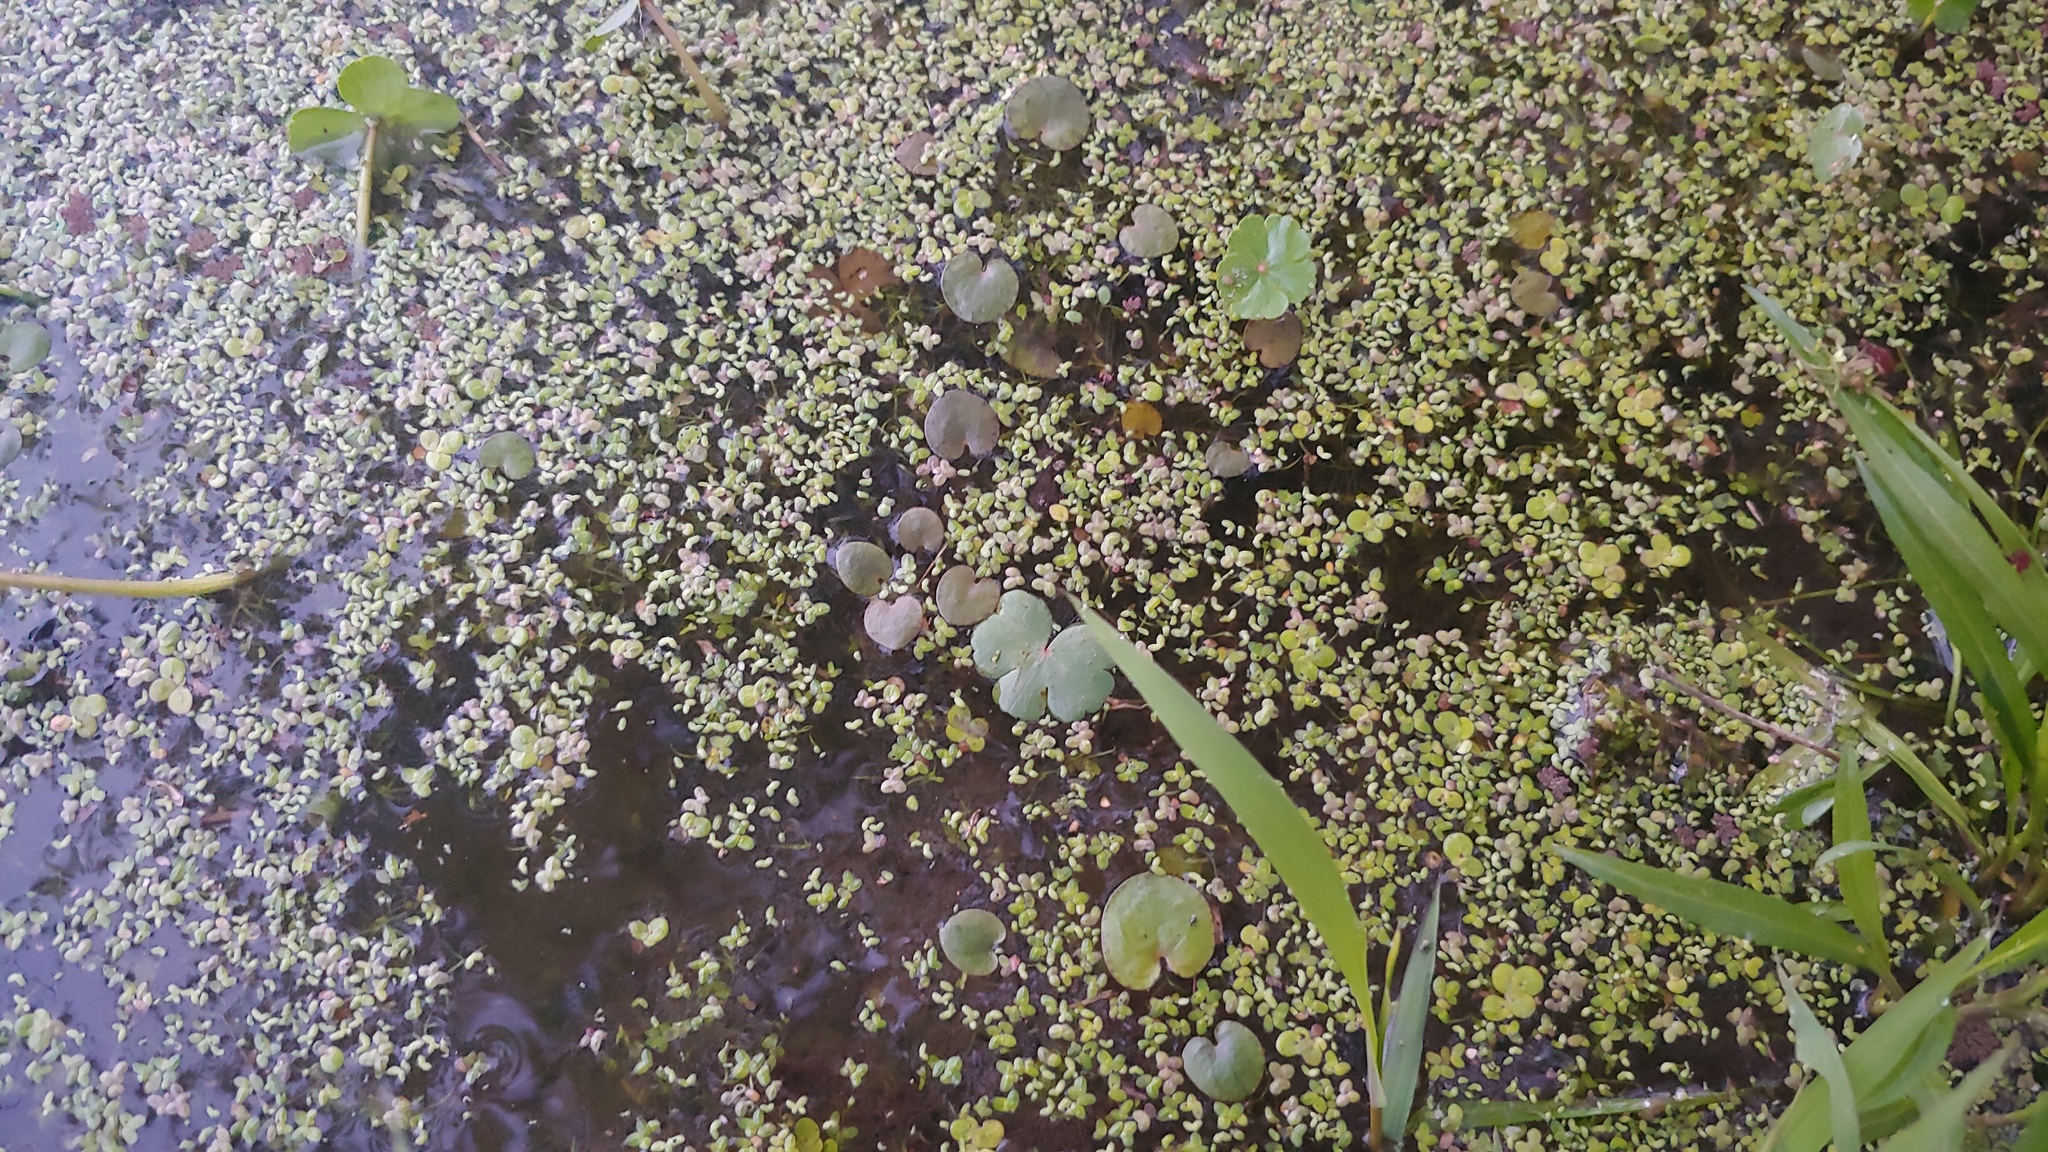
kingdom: Plantae
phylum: Tracheophyta
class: Liliopsida
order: Alismatales
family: Hydrocharitaceae
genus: Hydrocharis
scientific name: Hydrocharis spongia
